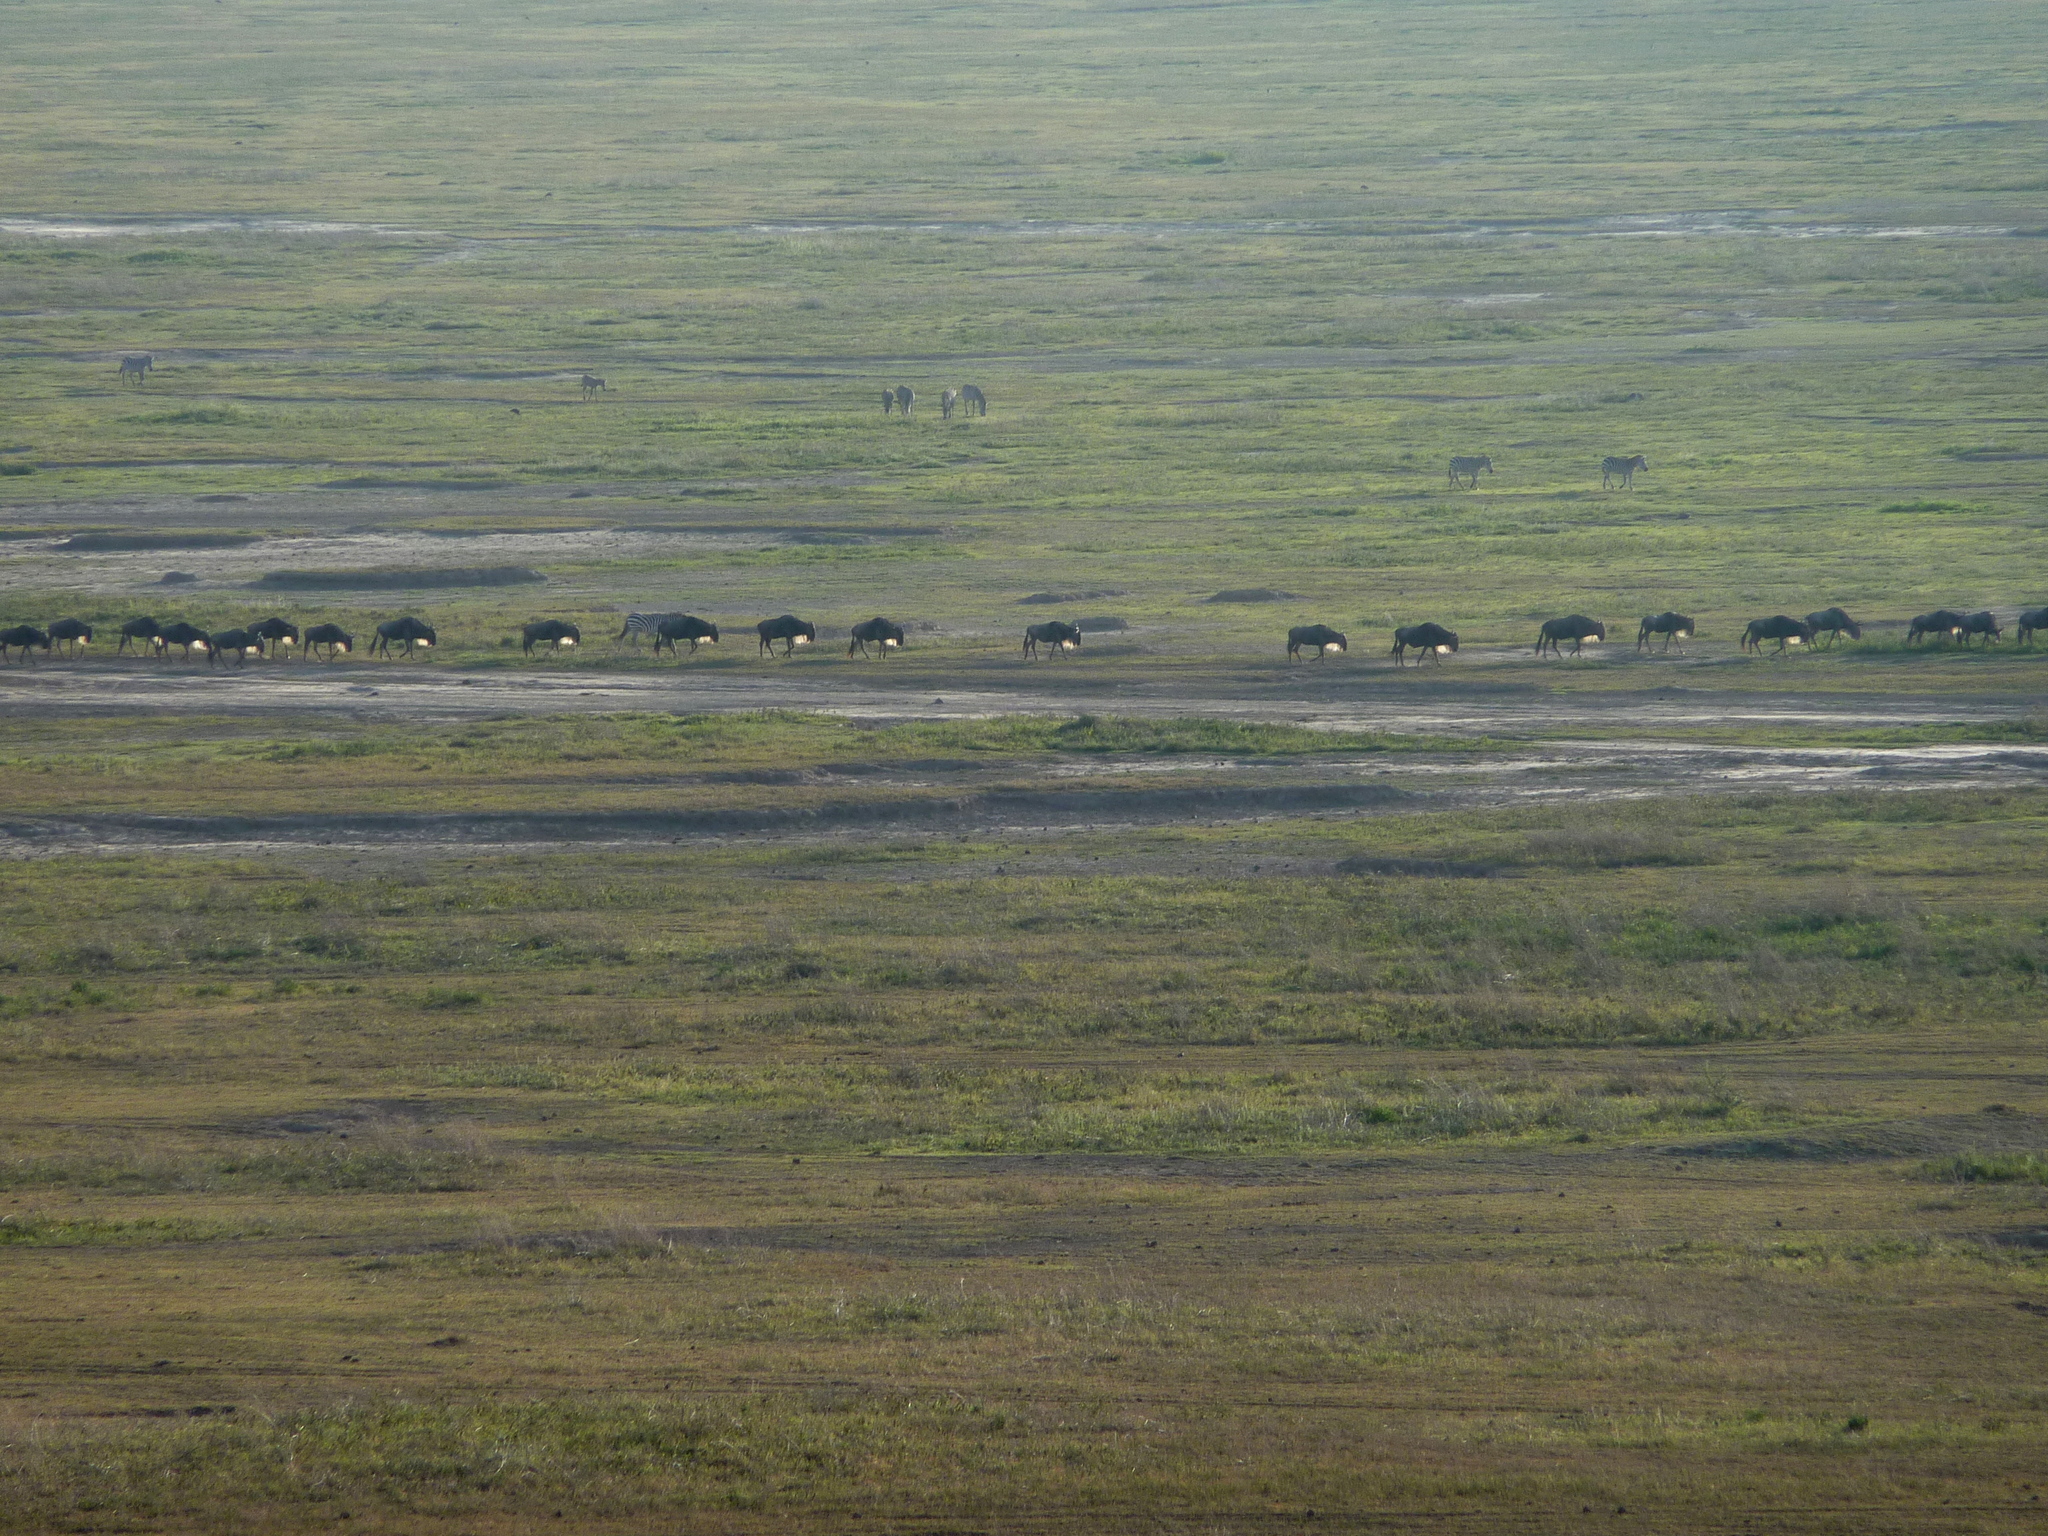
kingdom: Animalia
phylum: Chordata
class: Mammalia
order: Artiodactyla
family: Bovidae
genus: Connochaetes
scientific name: Connochaetes taurinus
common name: Blue wildebeest
